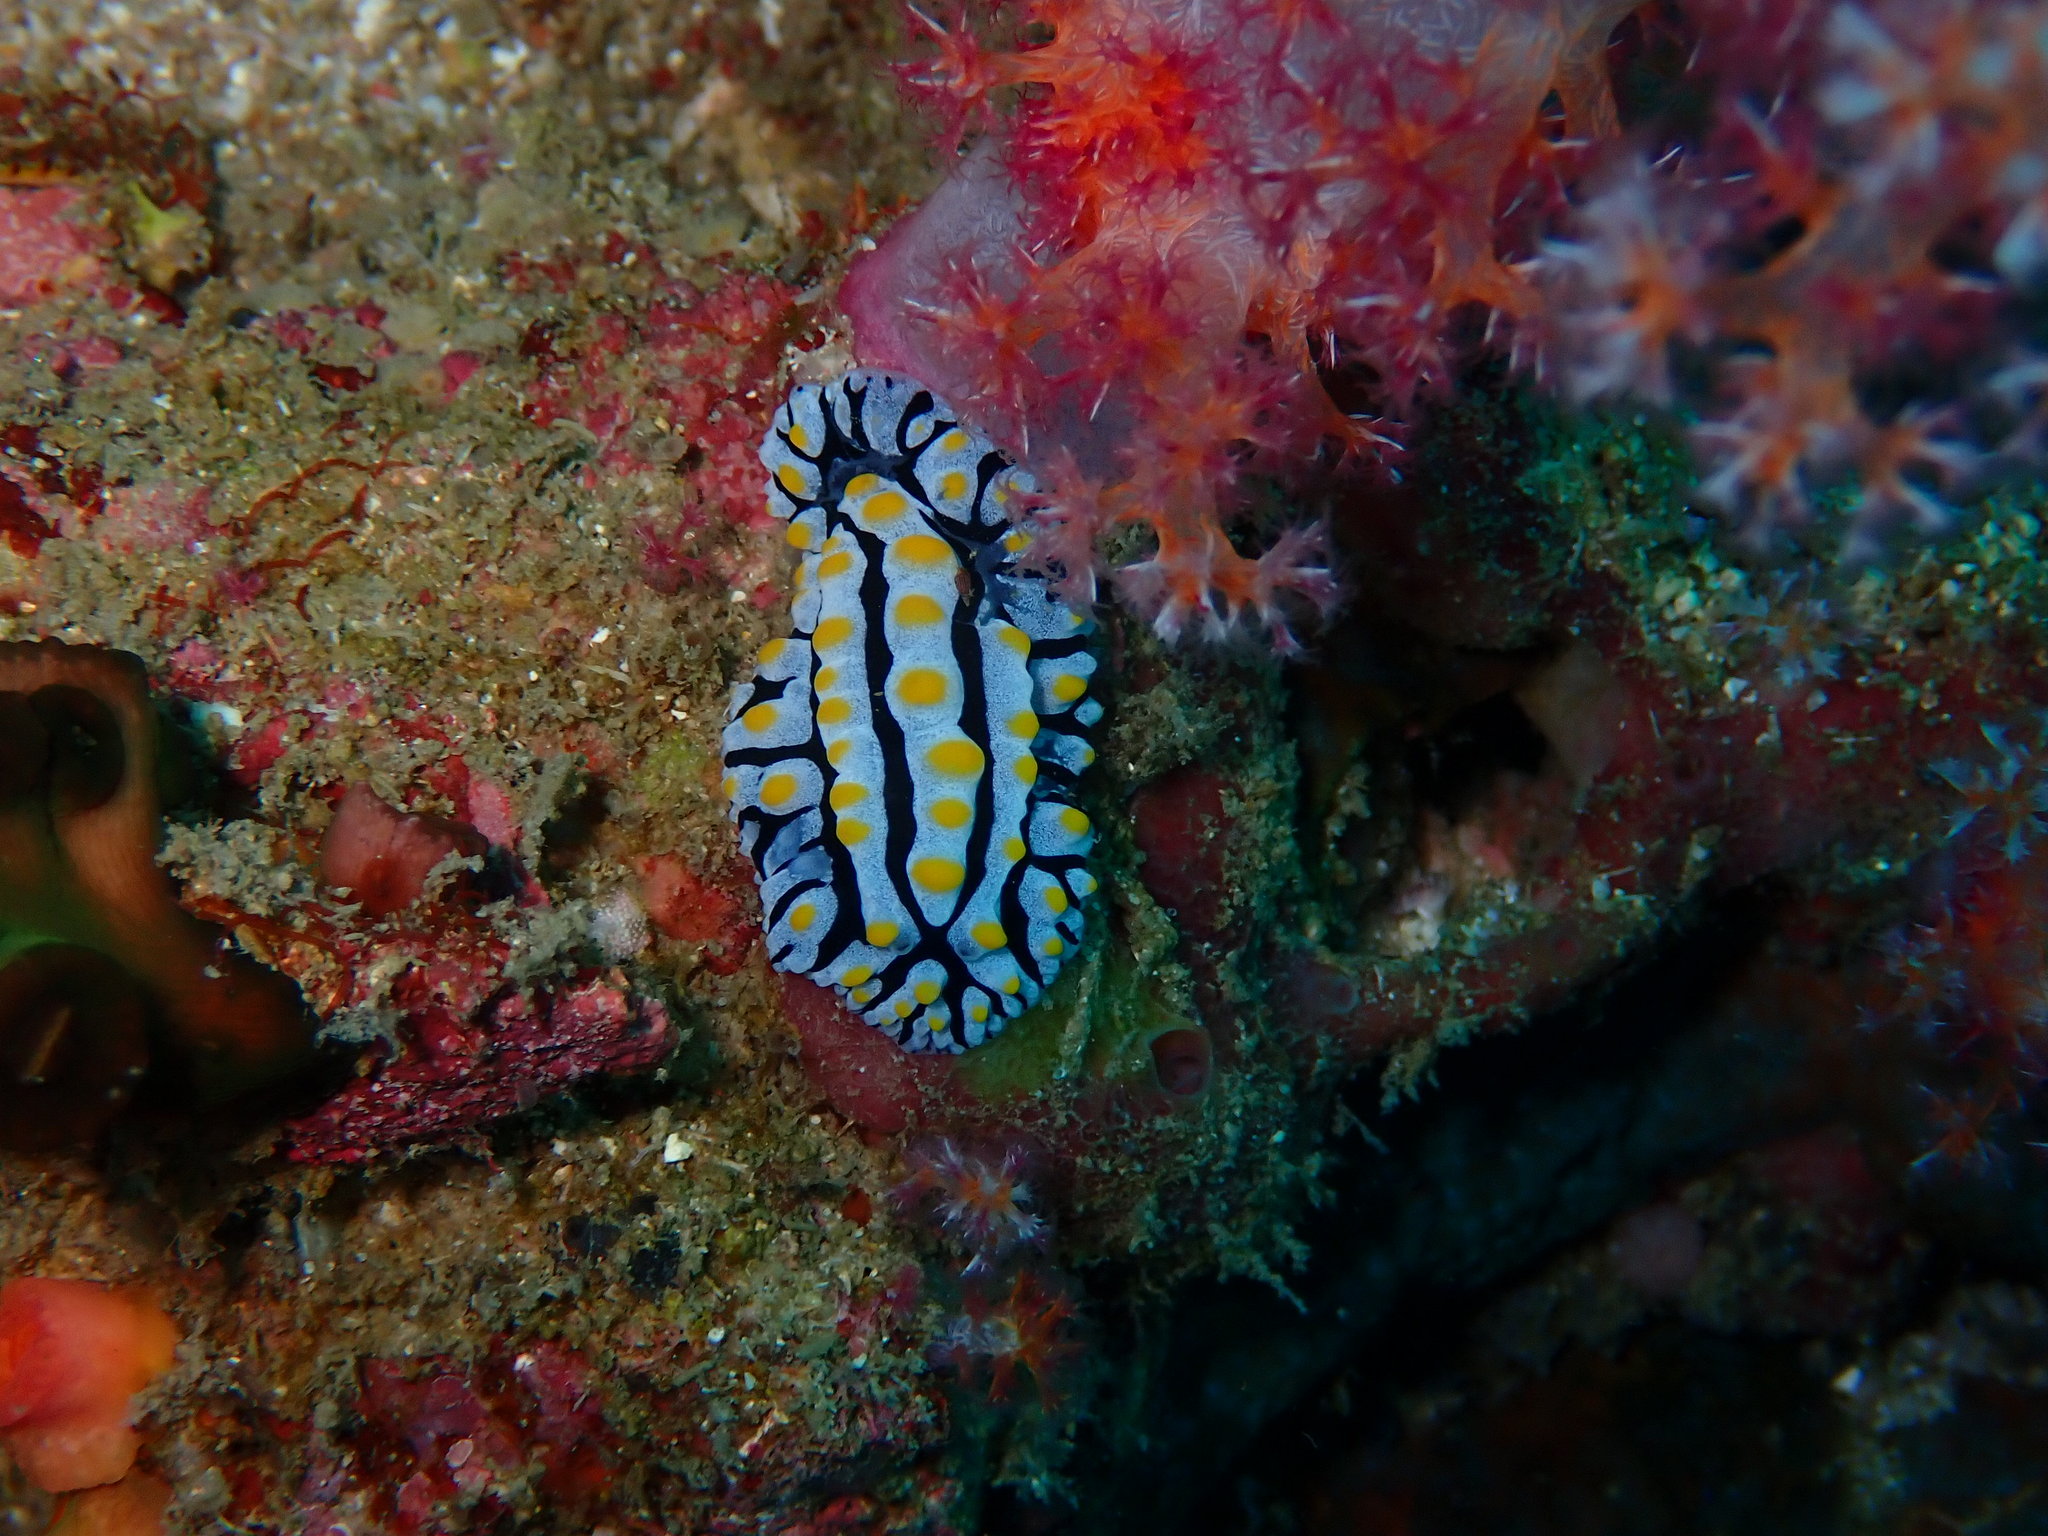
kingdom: Animalia
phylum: Mollusca
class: Gastropoda
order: Nudibranchia
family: Phyllidiidae
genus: Phyllidia
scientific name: Phyllidia varicosa
